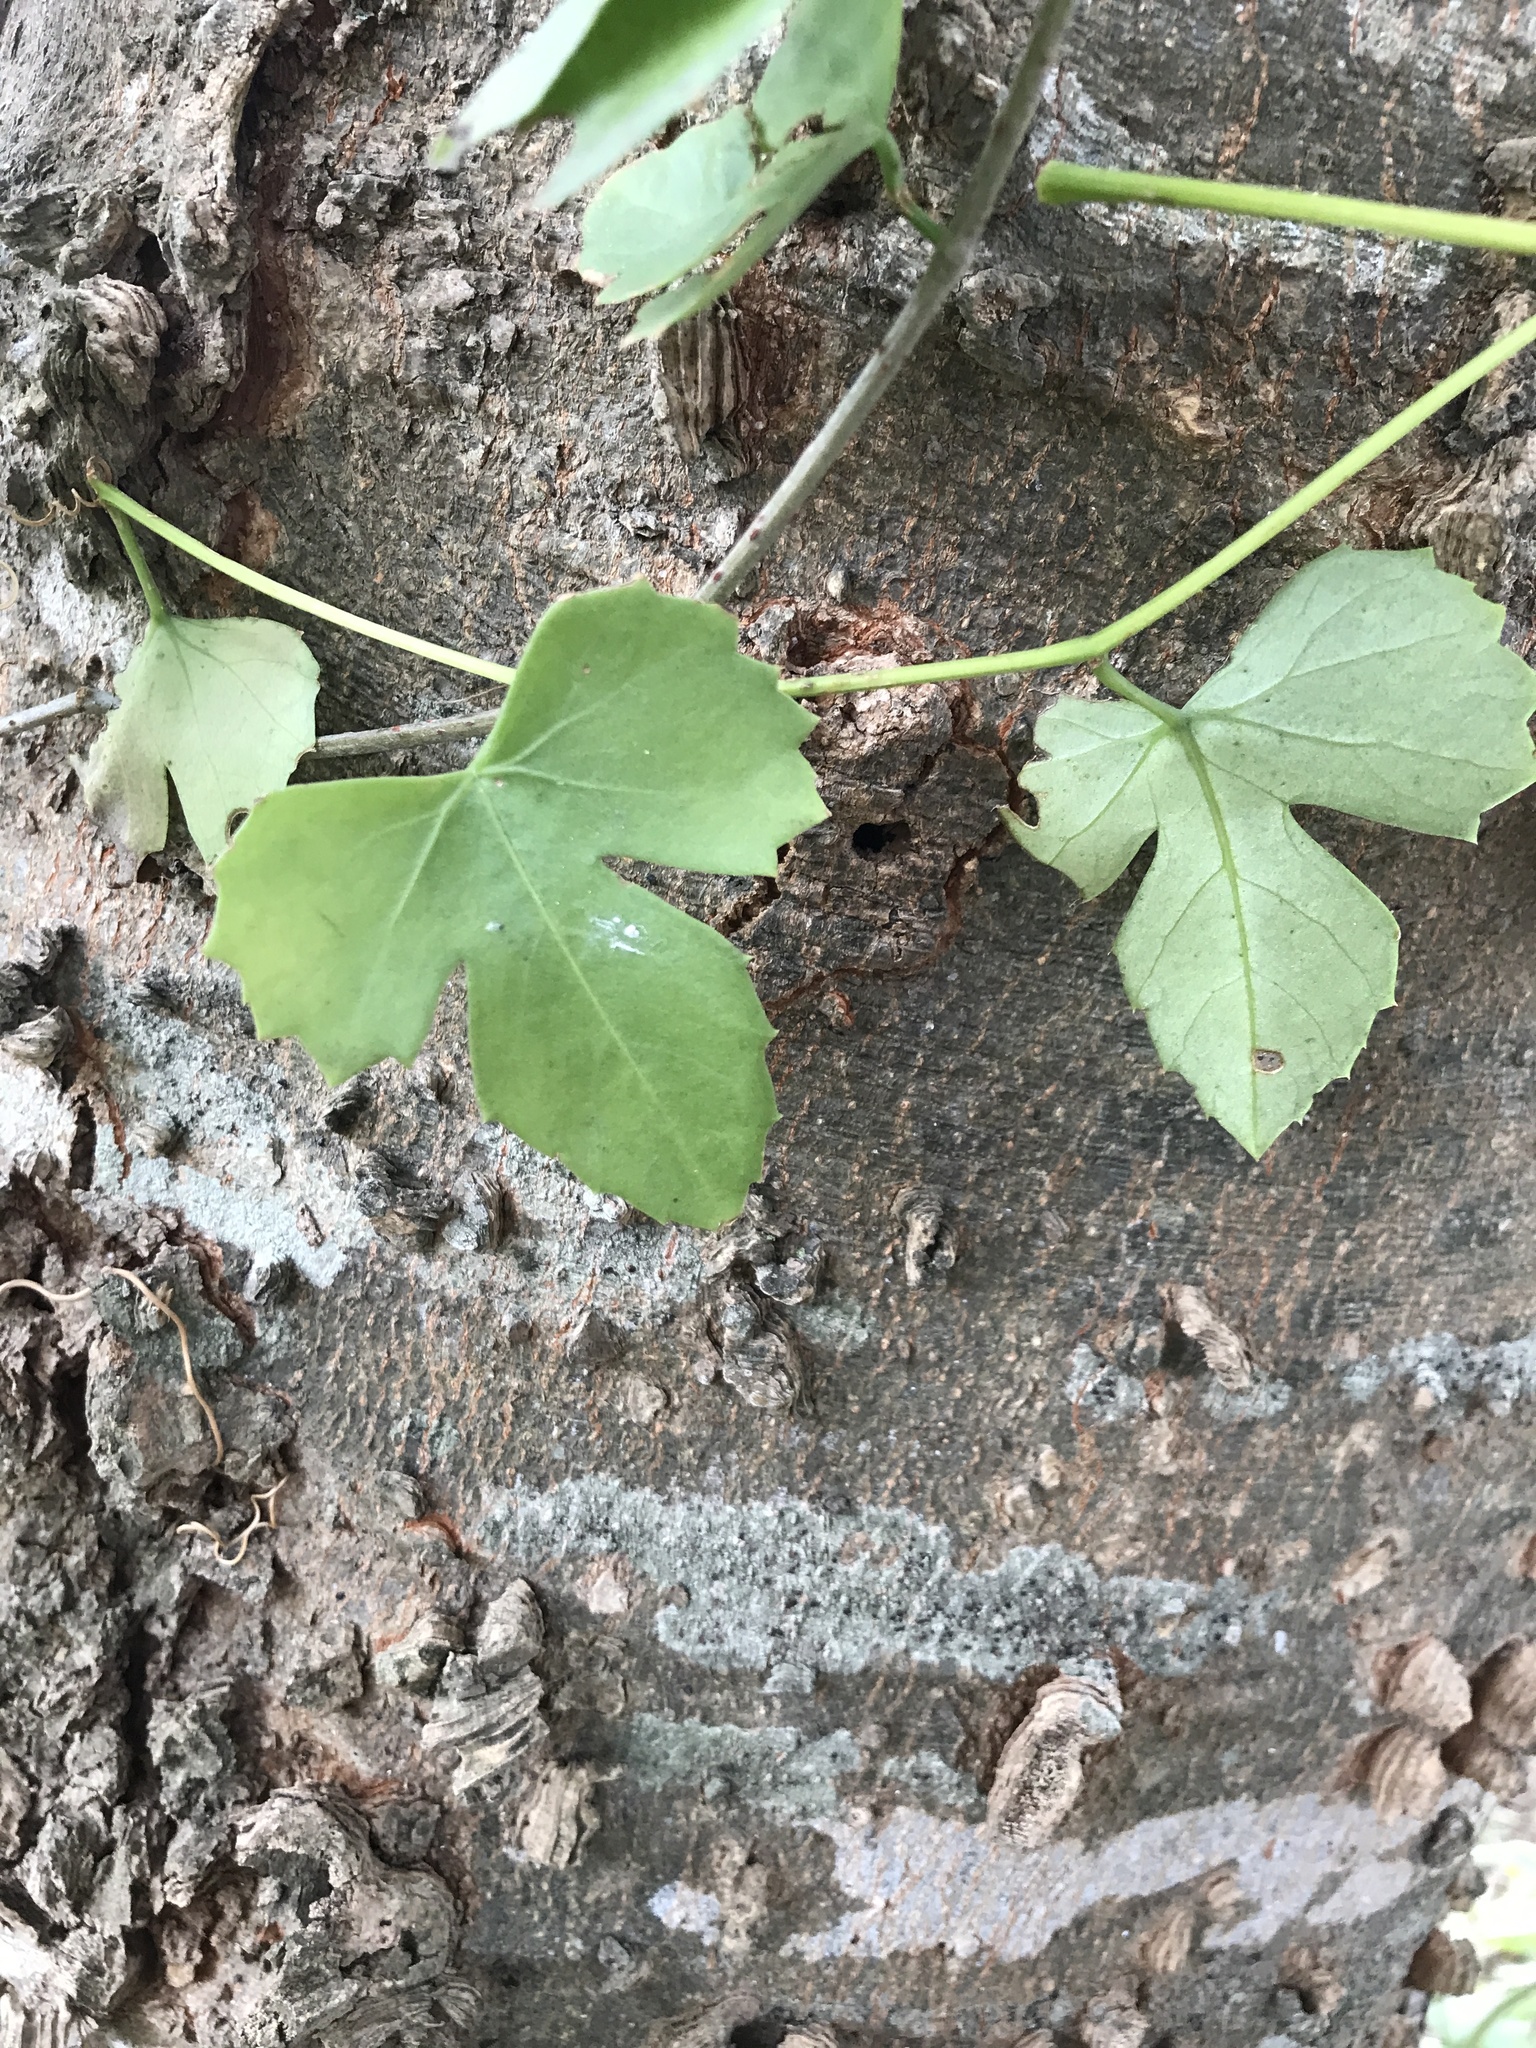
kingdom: Plantae
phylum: Tracheophyta
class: Magnoliopsida
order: Vitales
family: Vitaceae
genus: Cissus
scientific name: Cissus trifoliata
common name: Vine-sorrel
